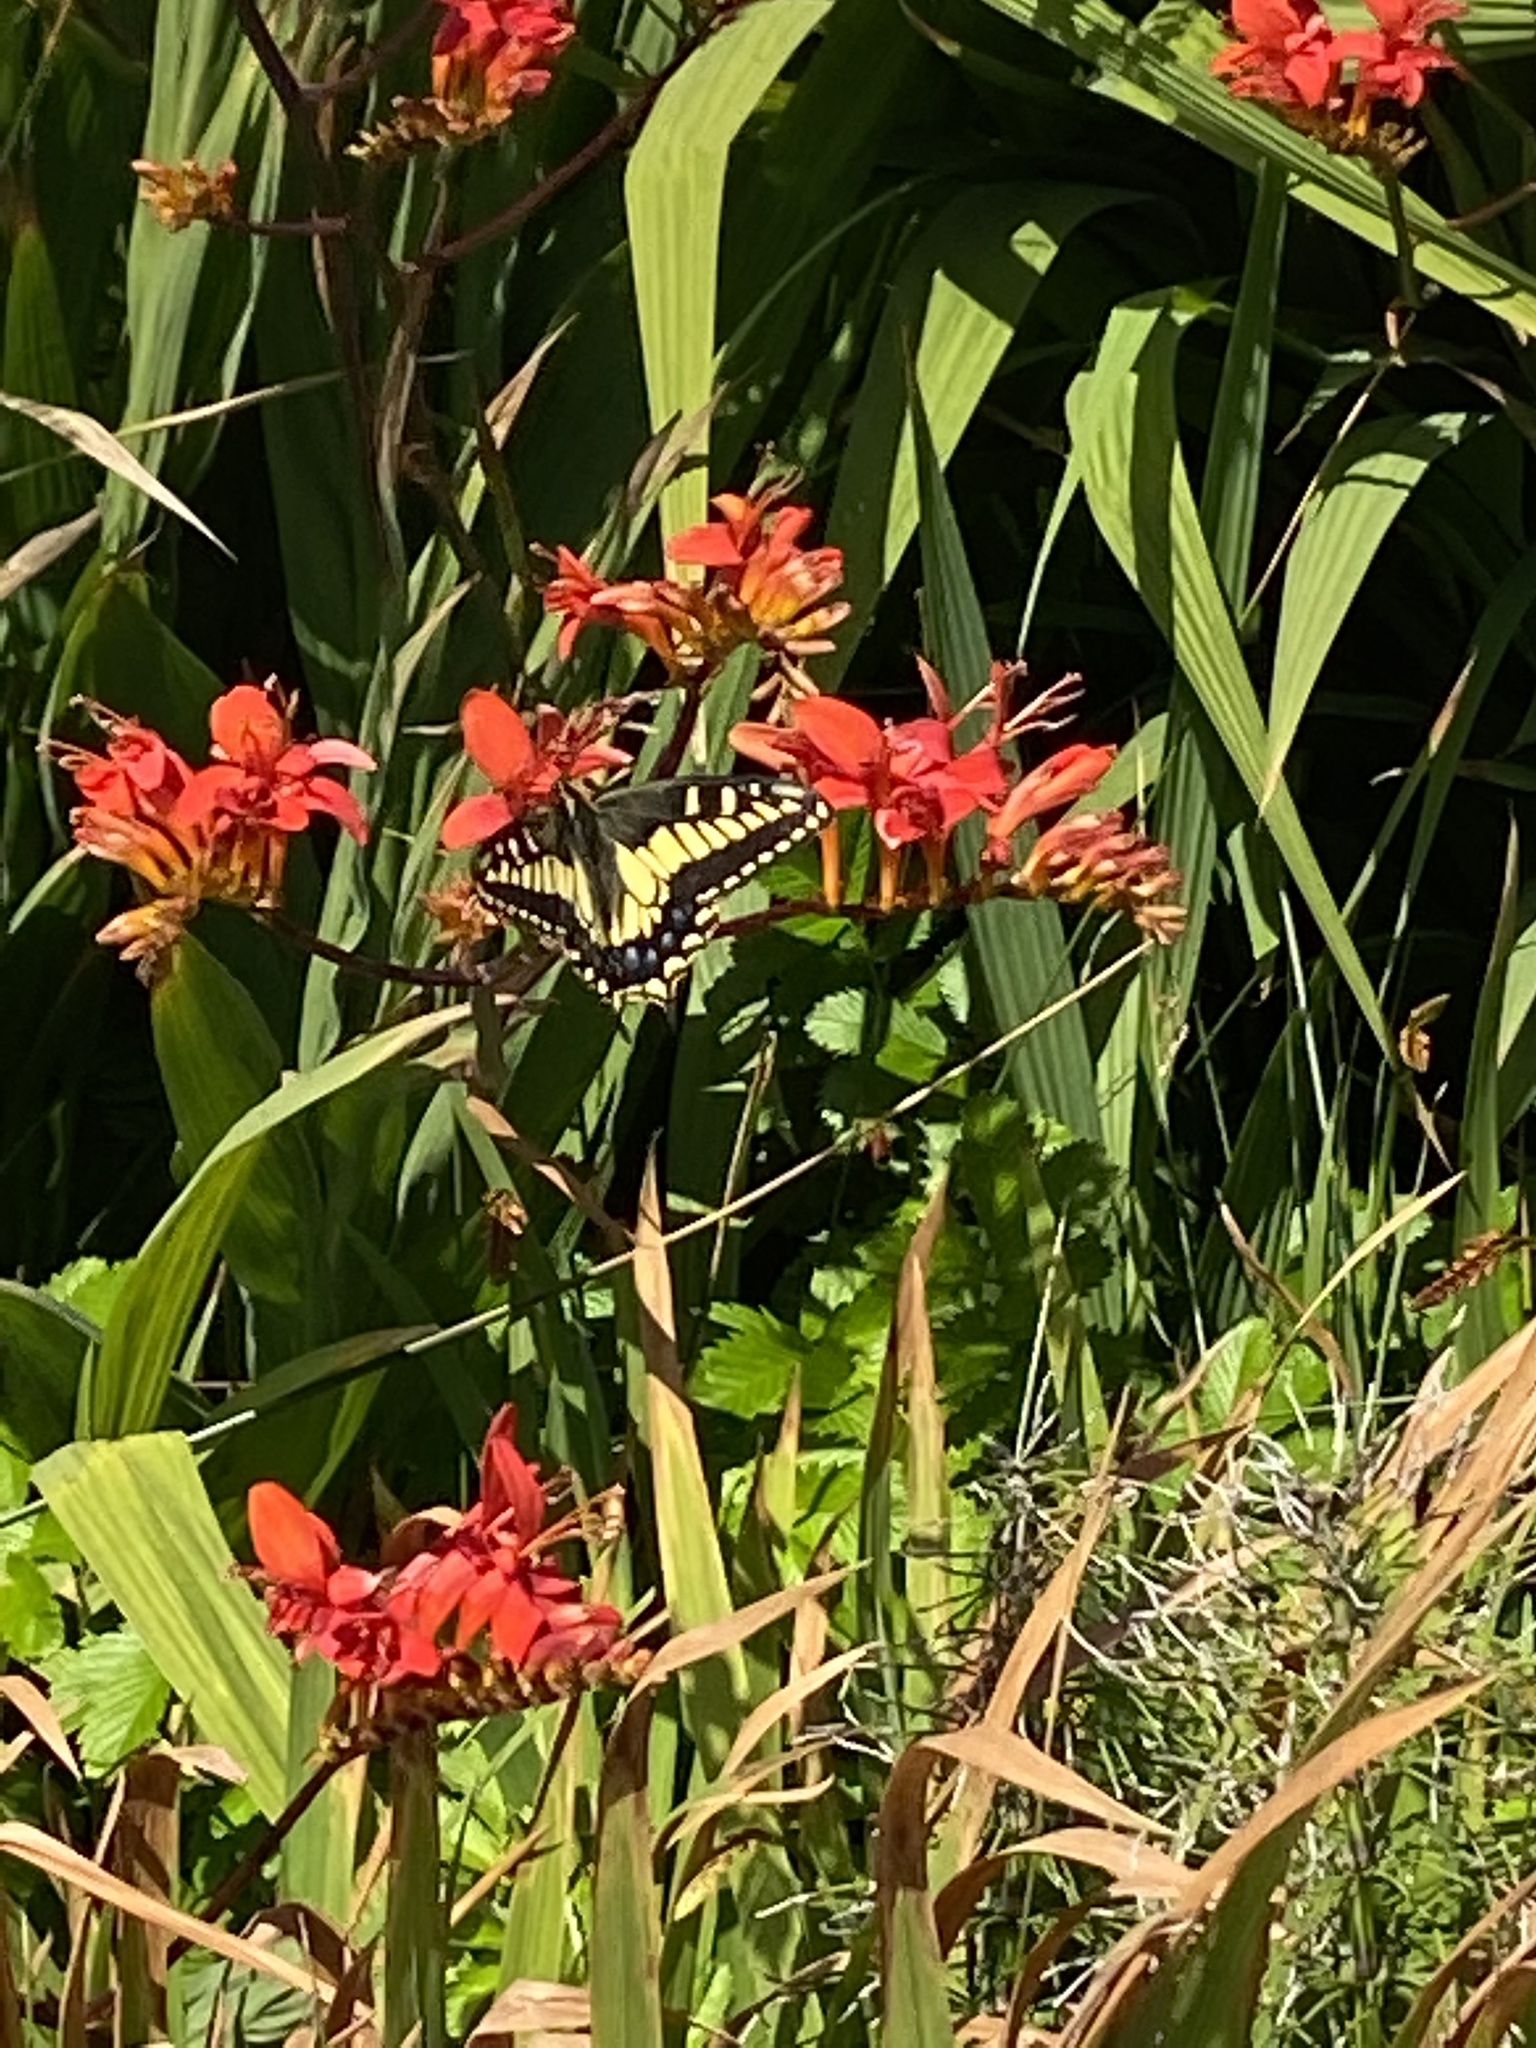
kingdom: Animalia
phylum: Arthropoda
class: Insecta
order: Lepidoptera
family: Papilionidae
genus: Papilio
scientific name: Papilio zelicaon
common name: Anise swallowtail
